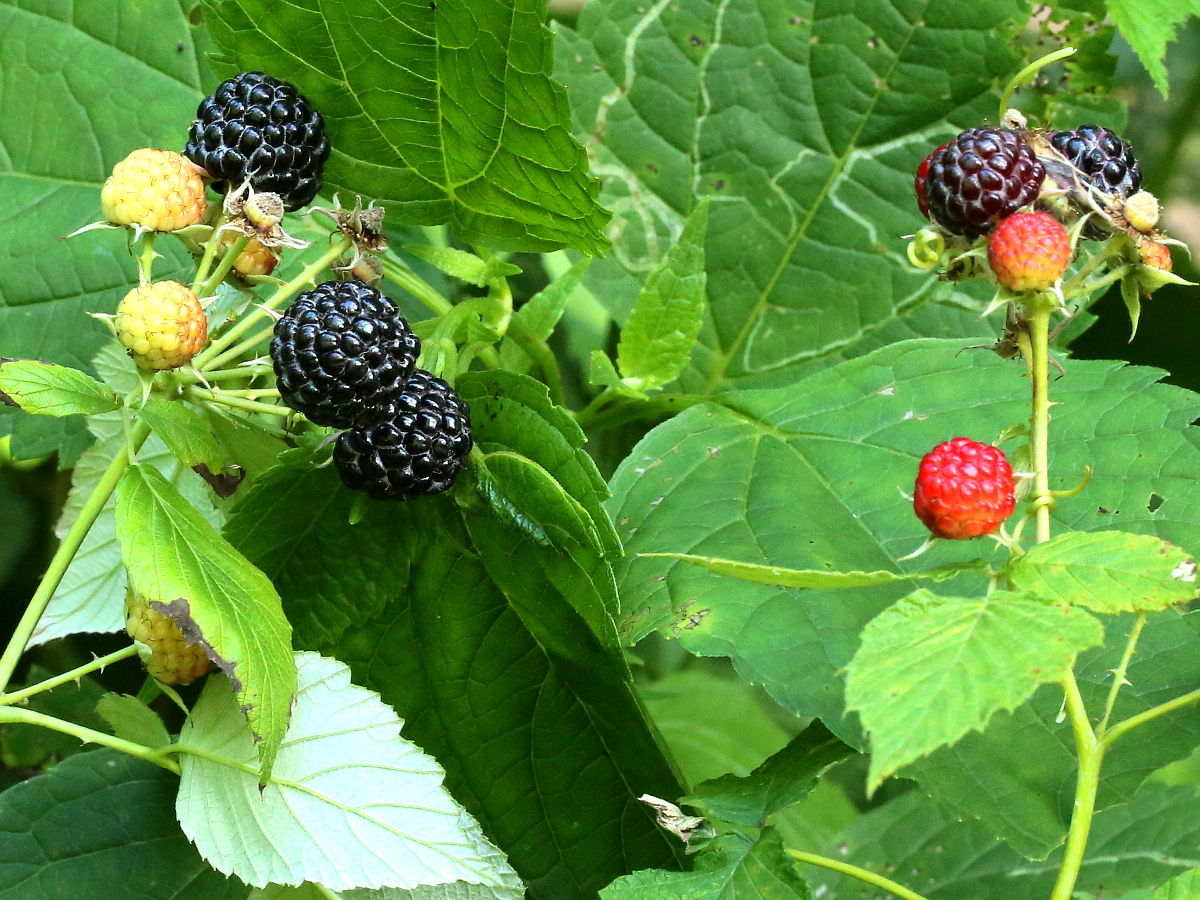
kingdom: Plantae
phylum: Tracheophyta
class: Magnoliopsida
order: Rosales
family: Rosaceae
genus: Rubus
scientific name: Rubus occidentalis
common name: Black raspberry
